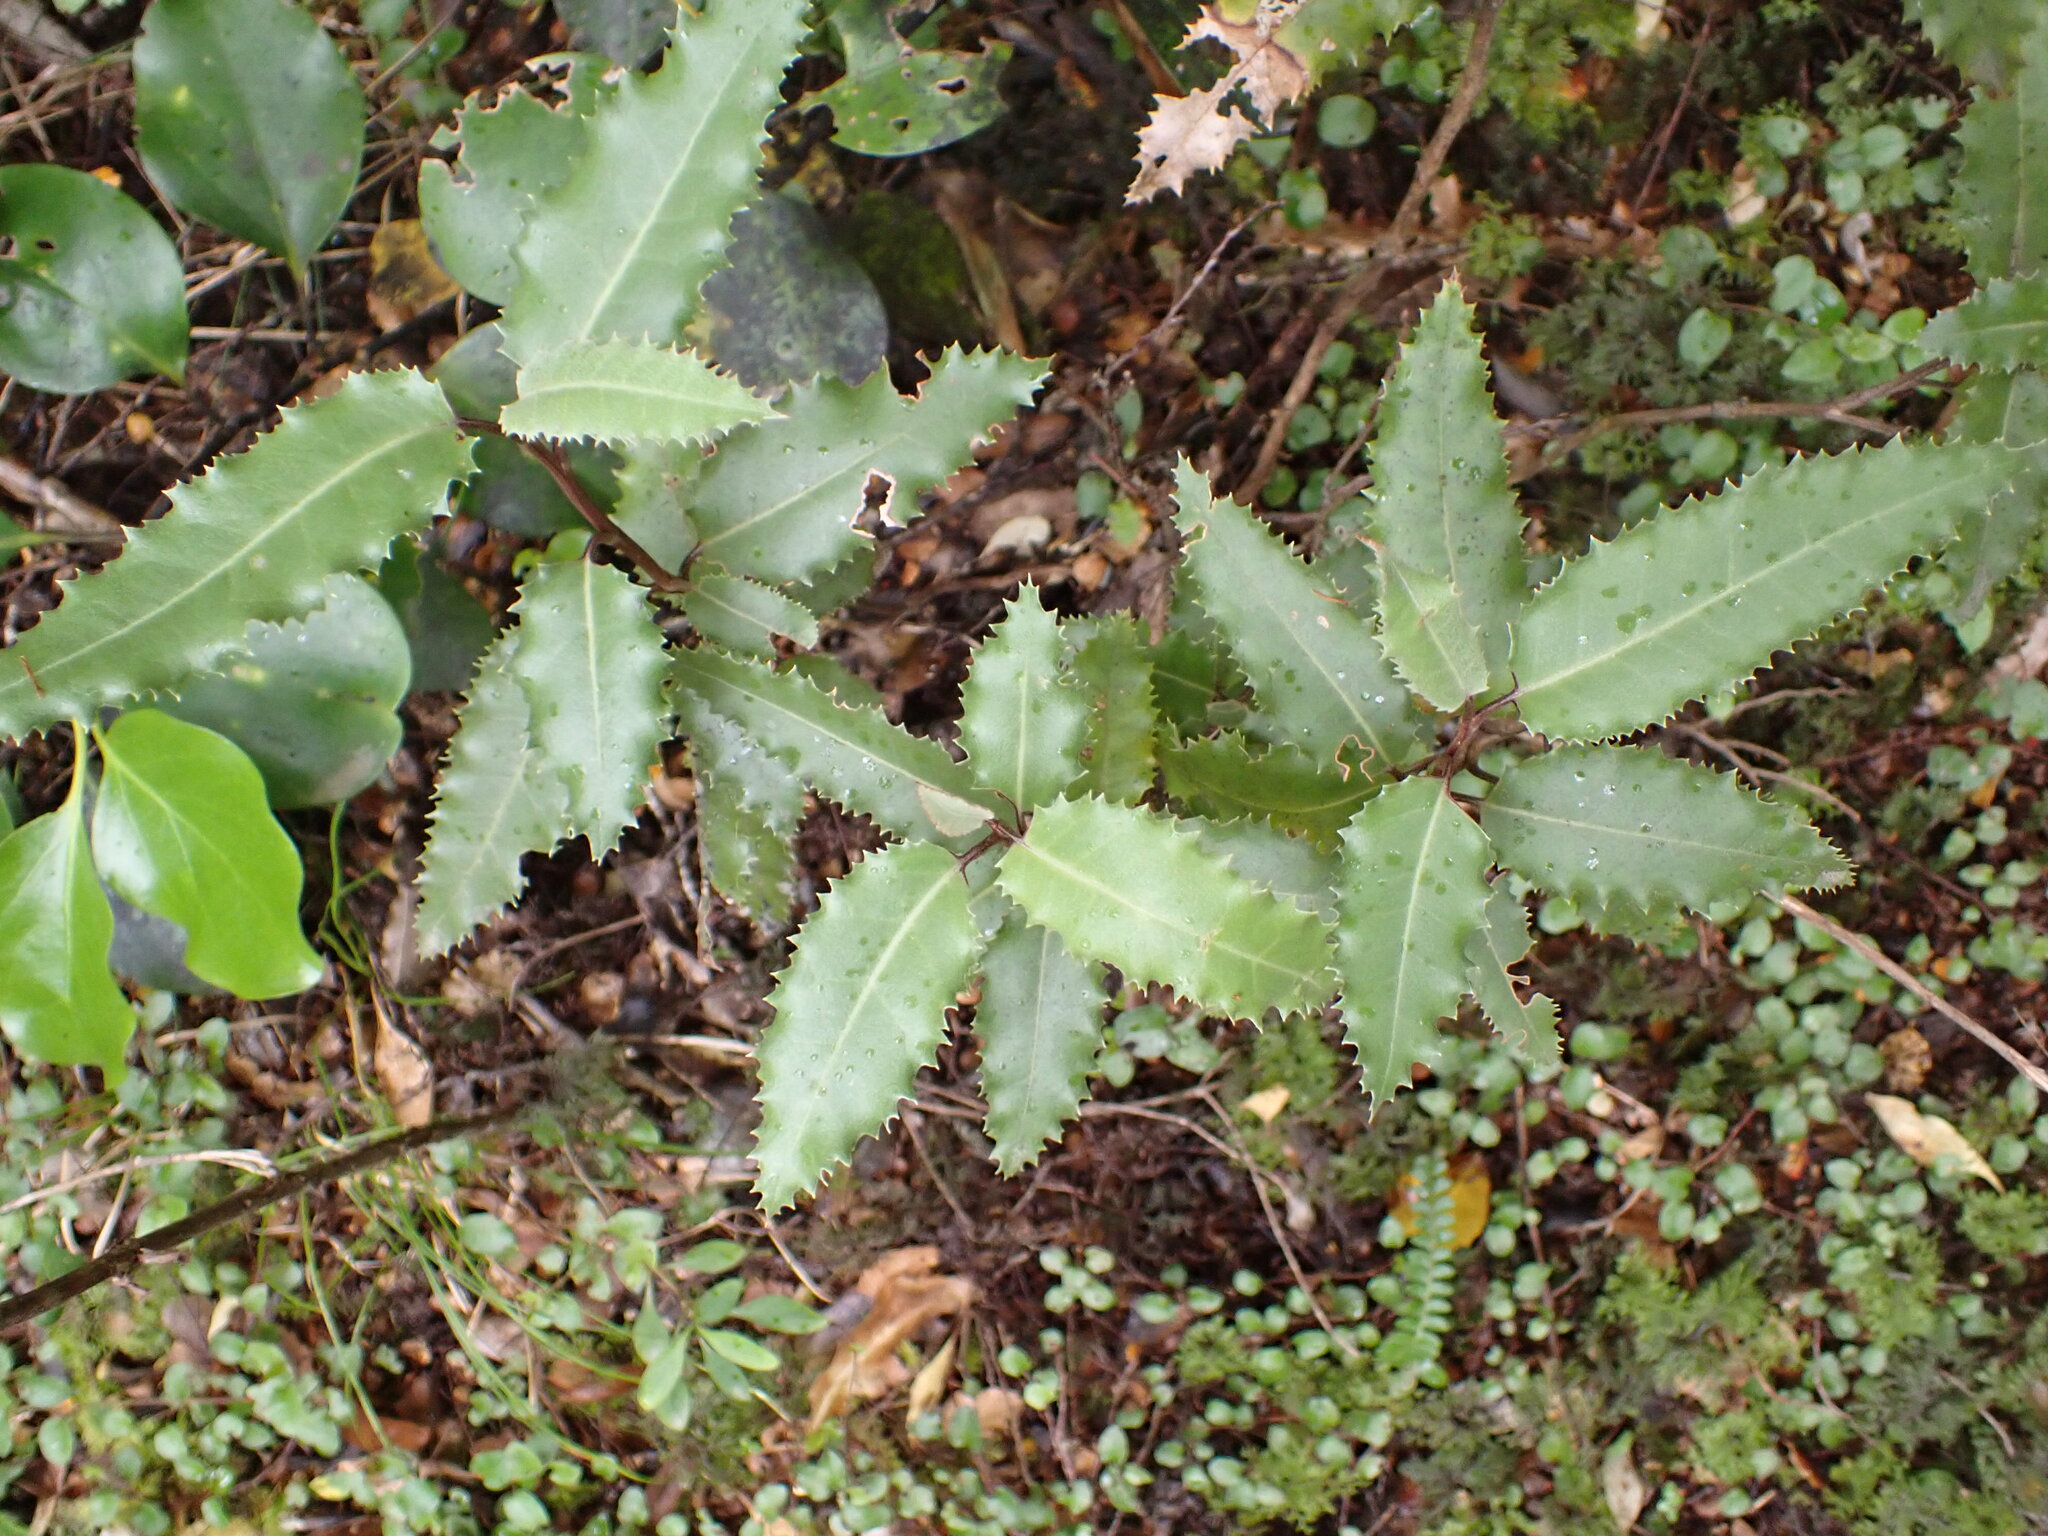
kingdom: Plantae
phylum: Tracheophyta
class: Magnoliopsida
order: Asterales
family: Asteraceae
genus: Olearia
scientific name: Olearia ilicifolia
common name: Maori-holly
